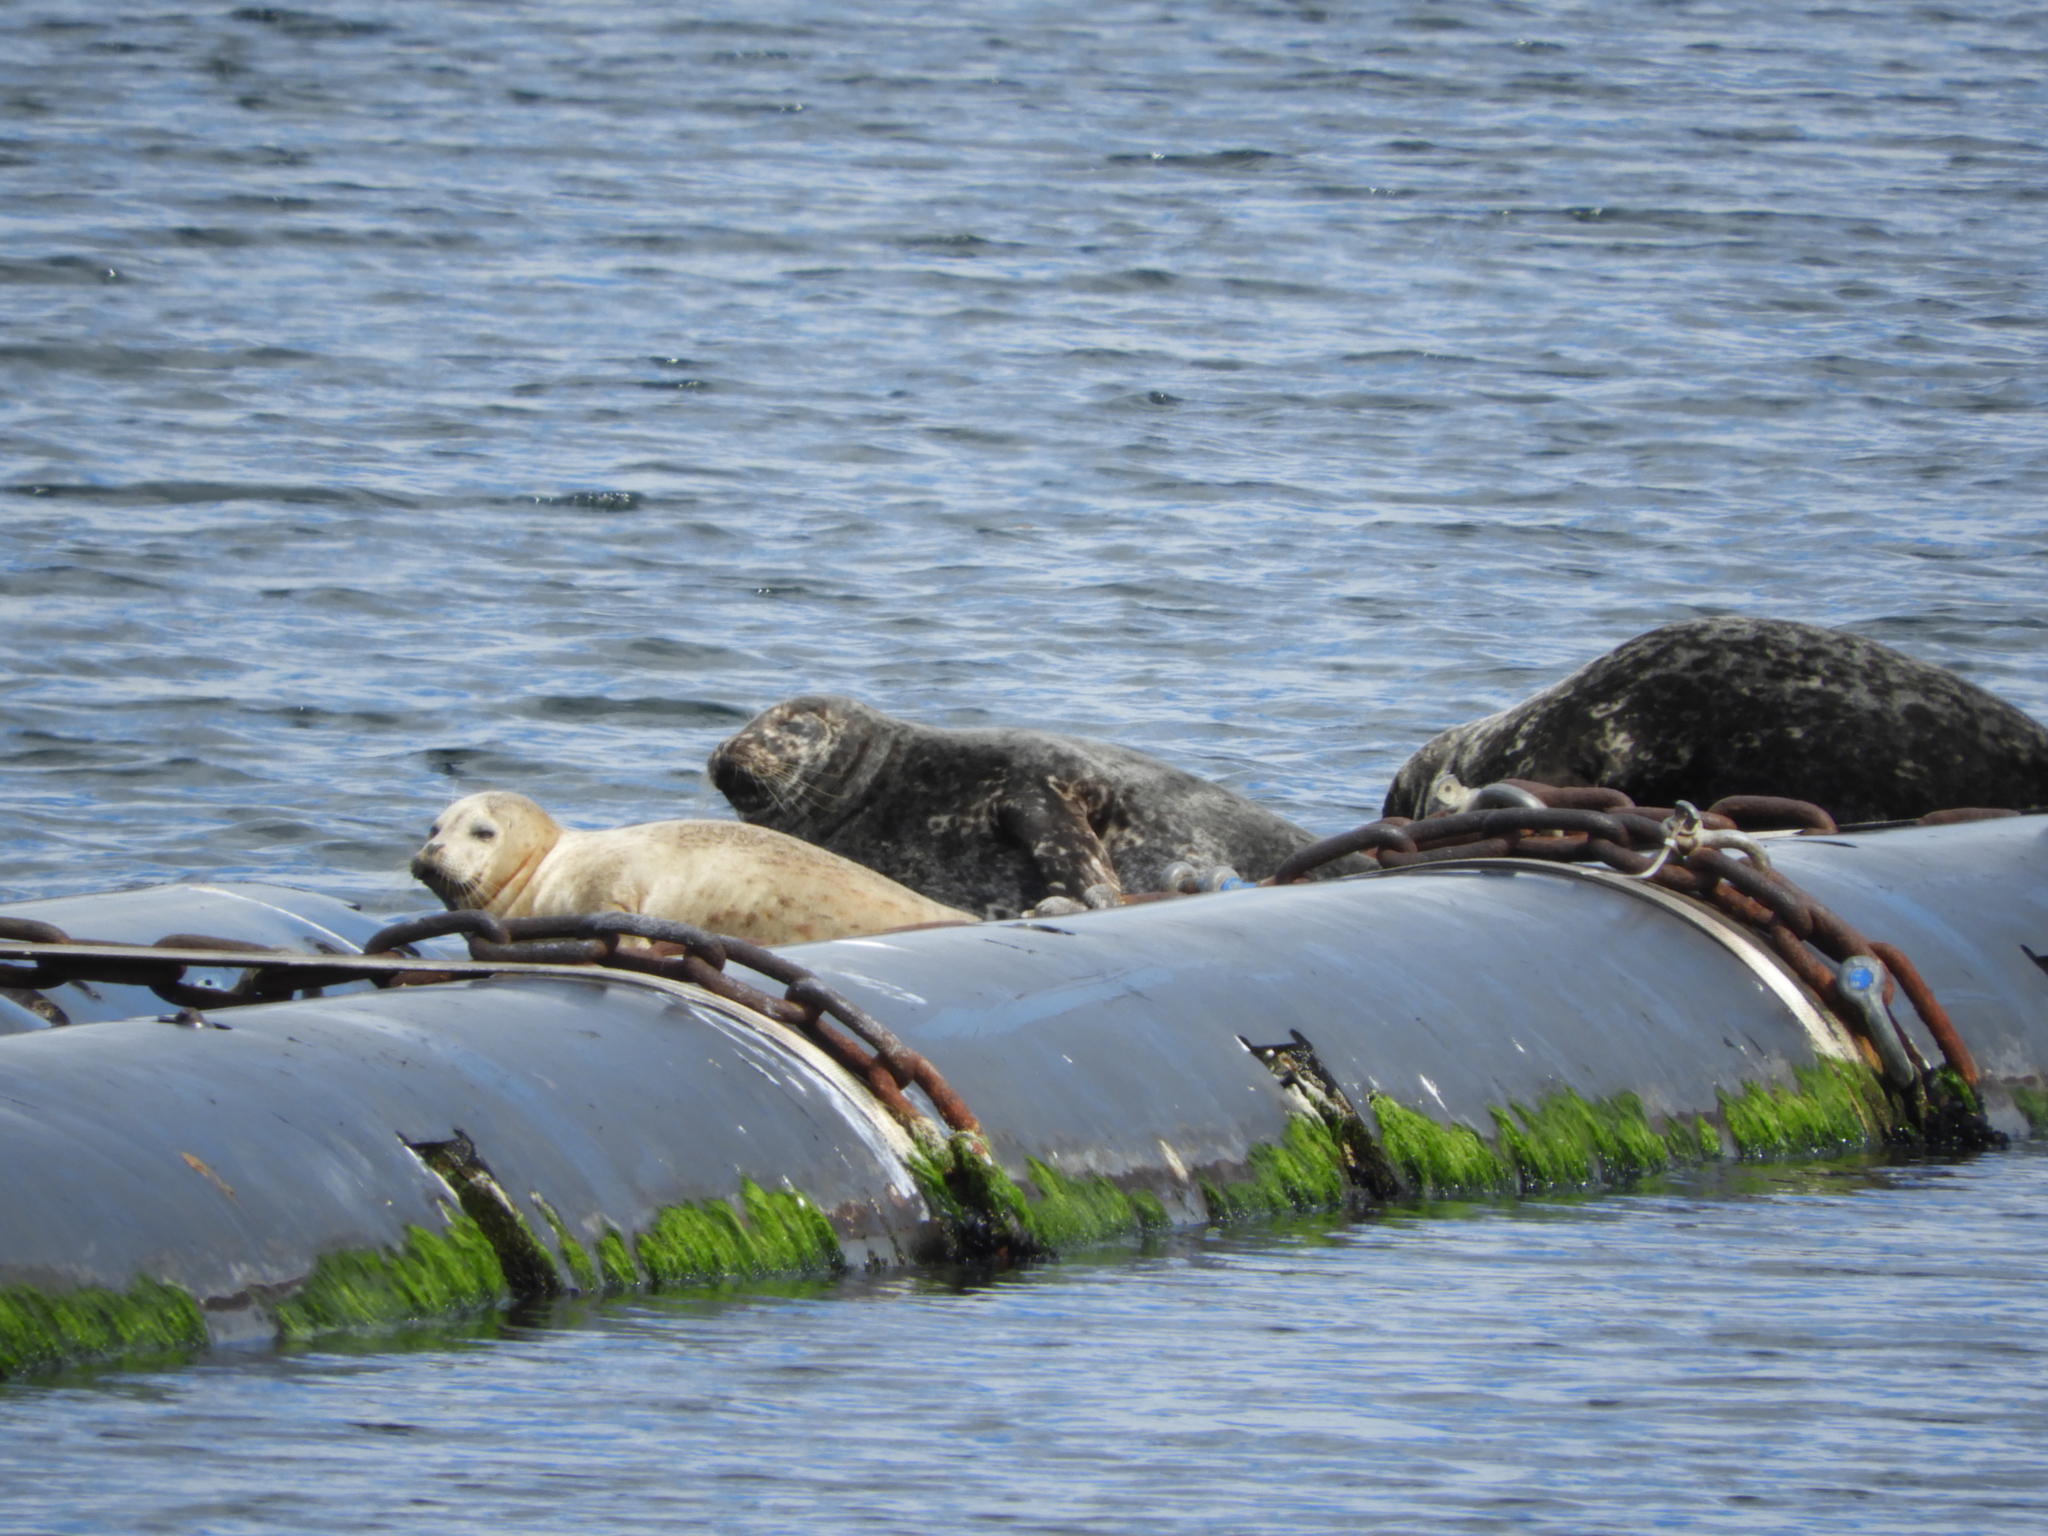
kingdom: Animalia
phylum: Chordata
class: Mammalia
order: Carnivora
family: Phocidae
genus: Phoca
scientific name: Phoca vitulina
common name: Harbor seal
